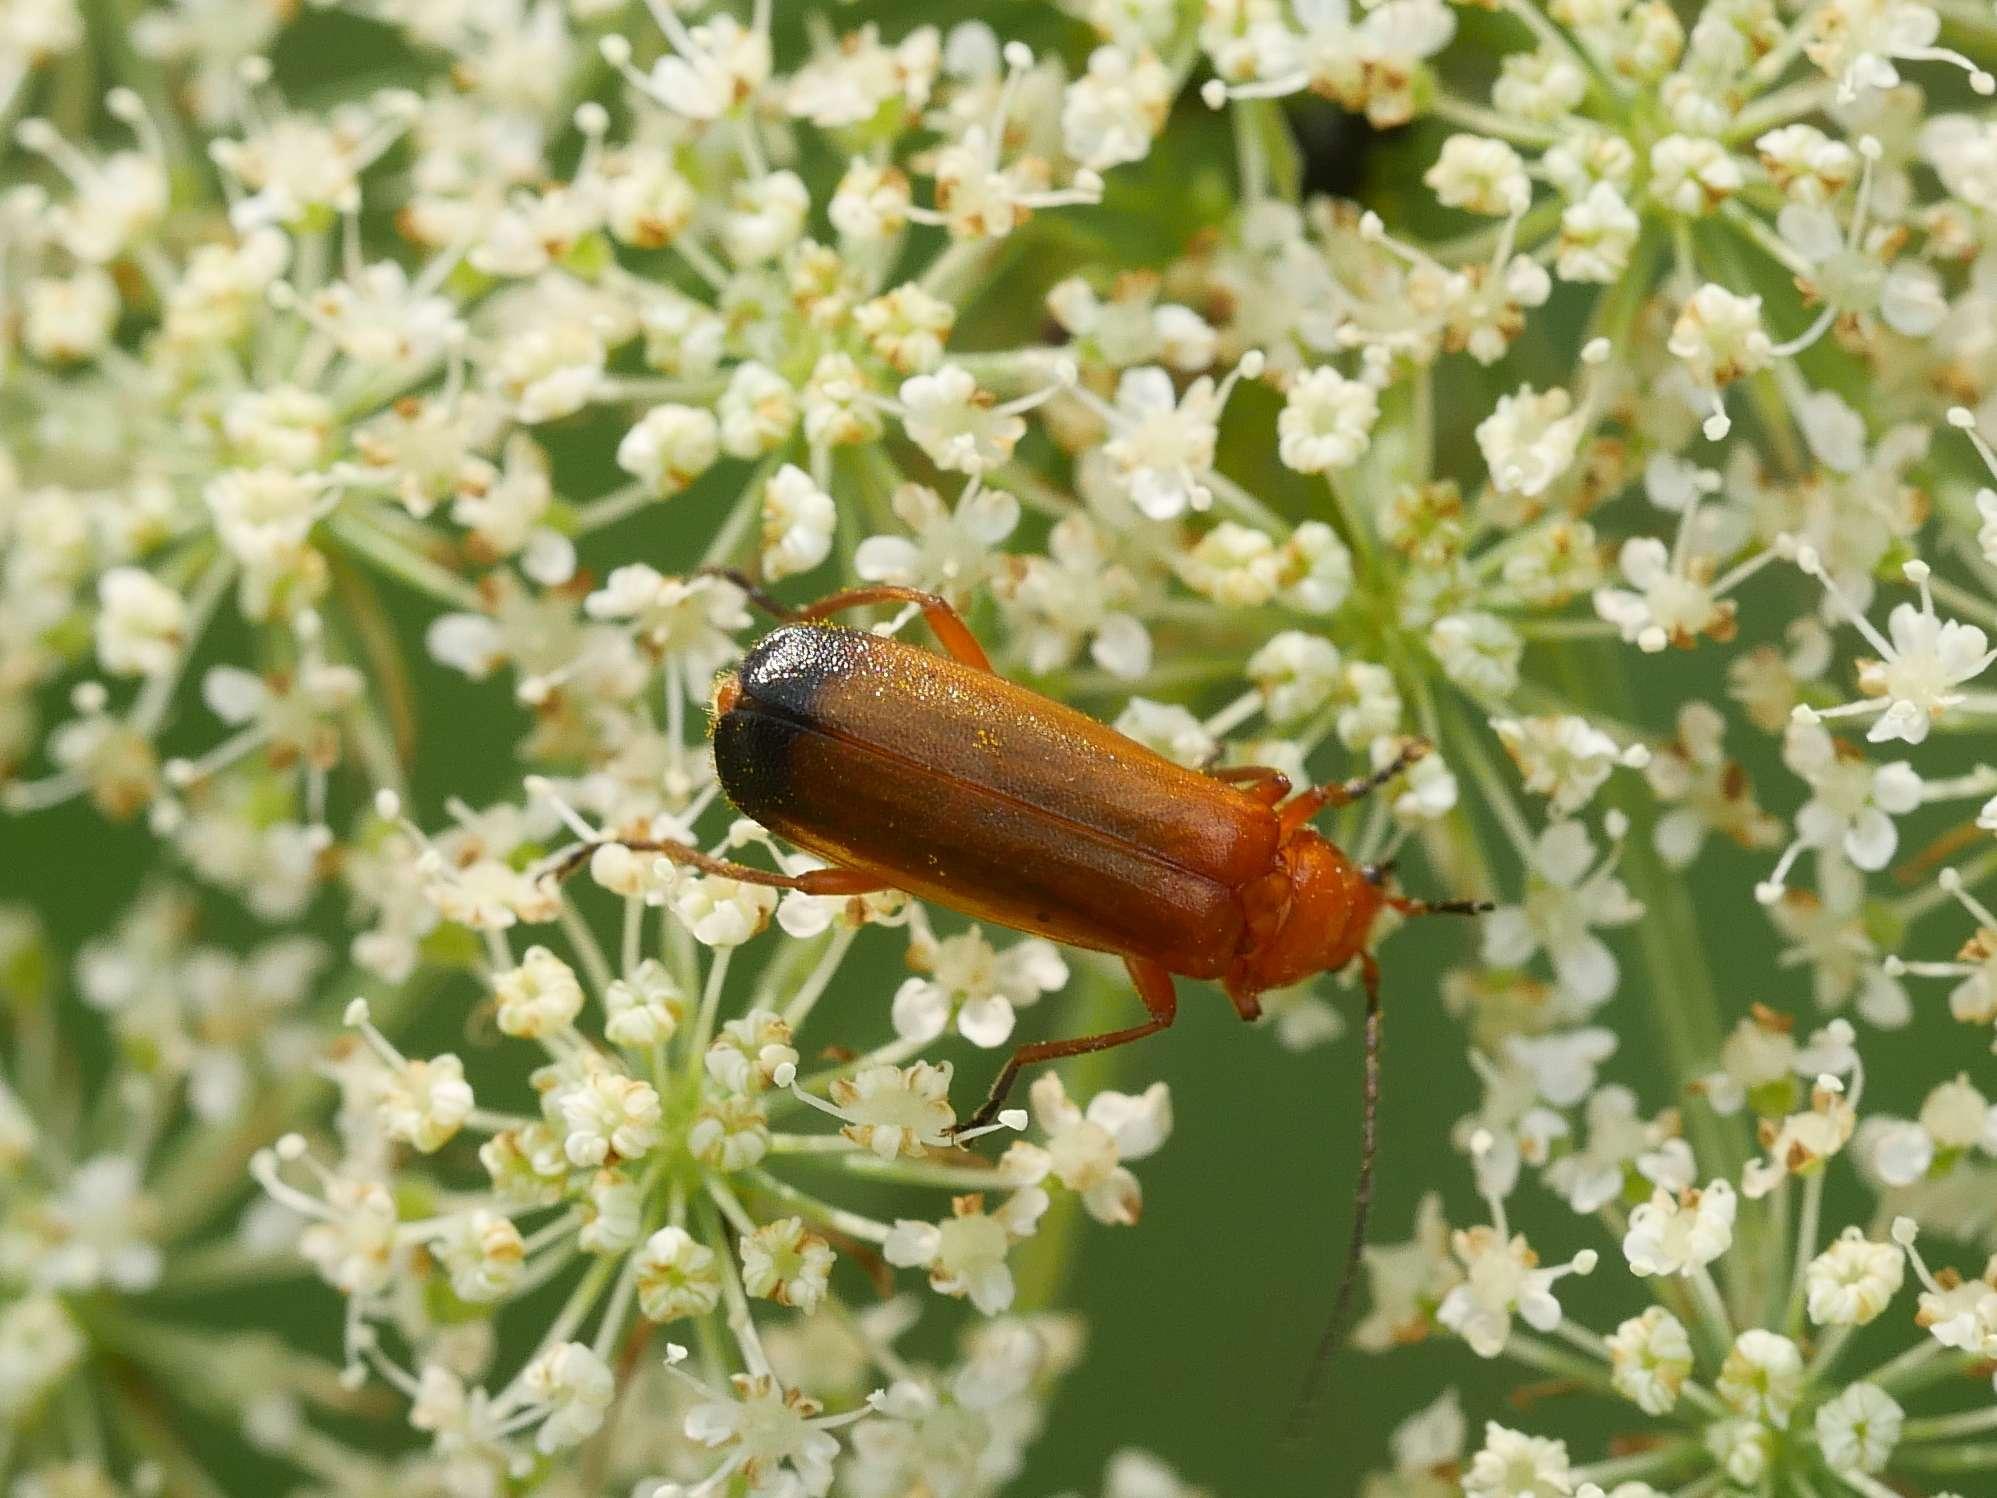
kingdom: Animalia
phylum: Arthropoda
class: Insecta
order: Coleoptera
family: Cantharidae
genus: Rhagonycha
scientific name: Rhagonycha fulva
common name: Common red soldier beetle
